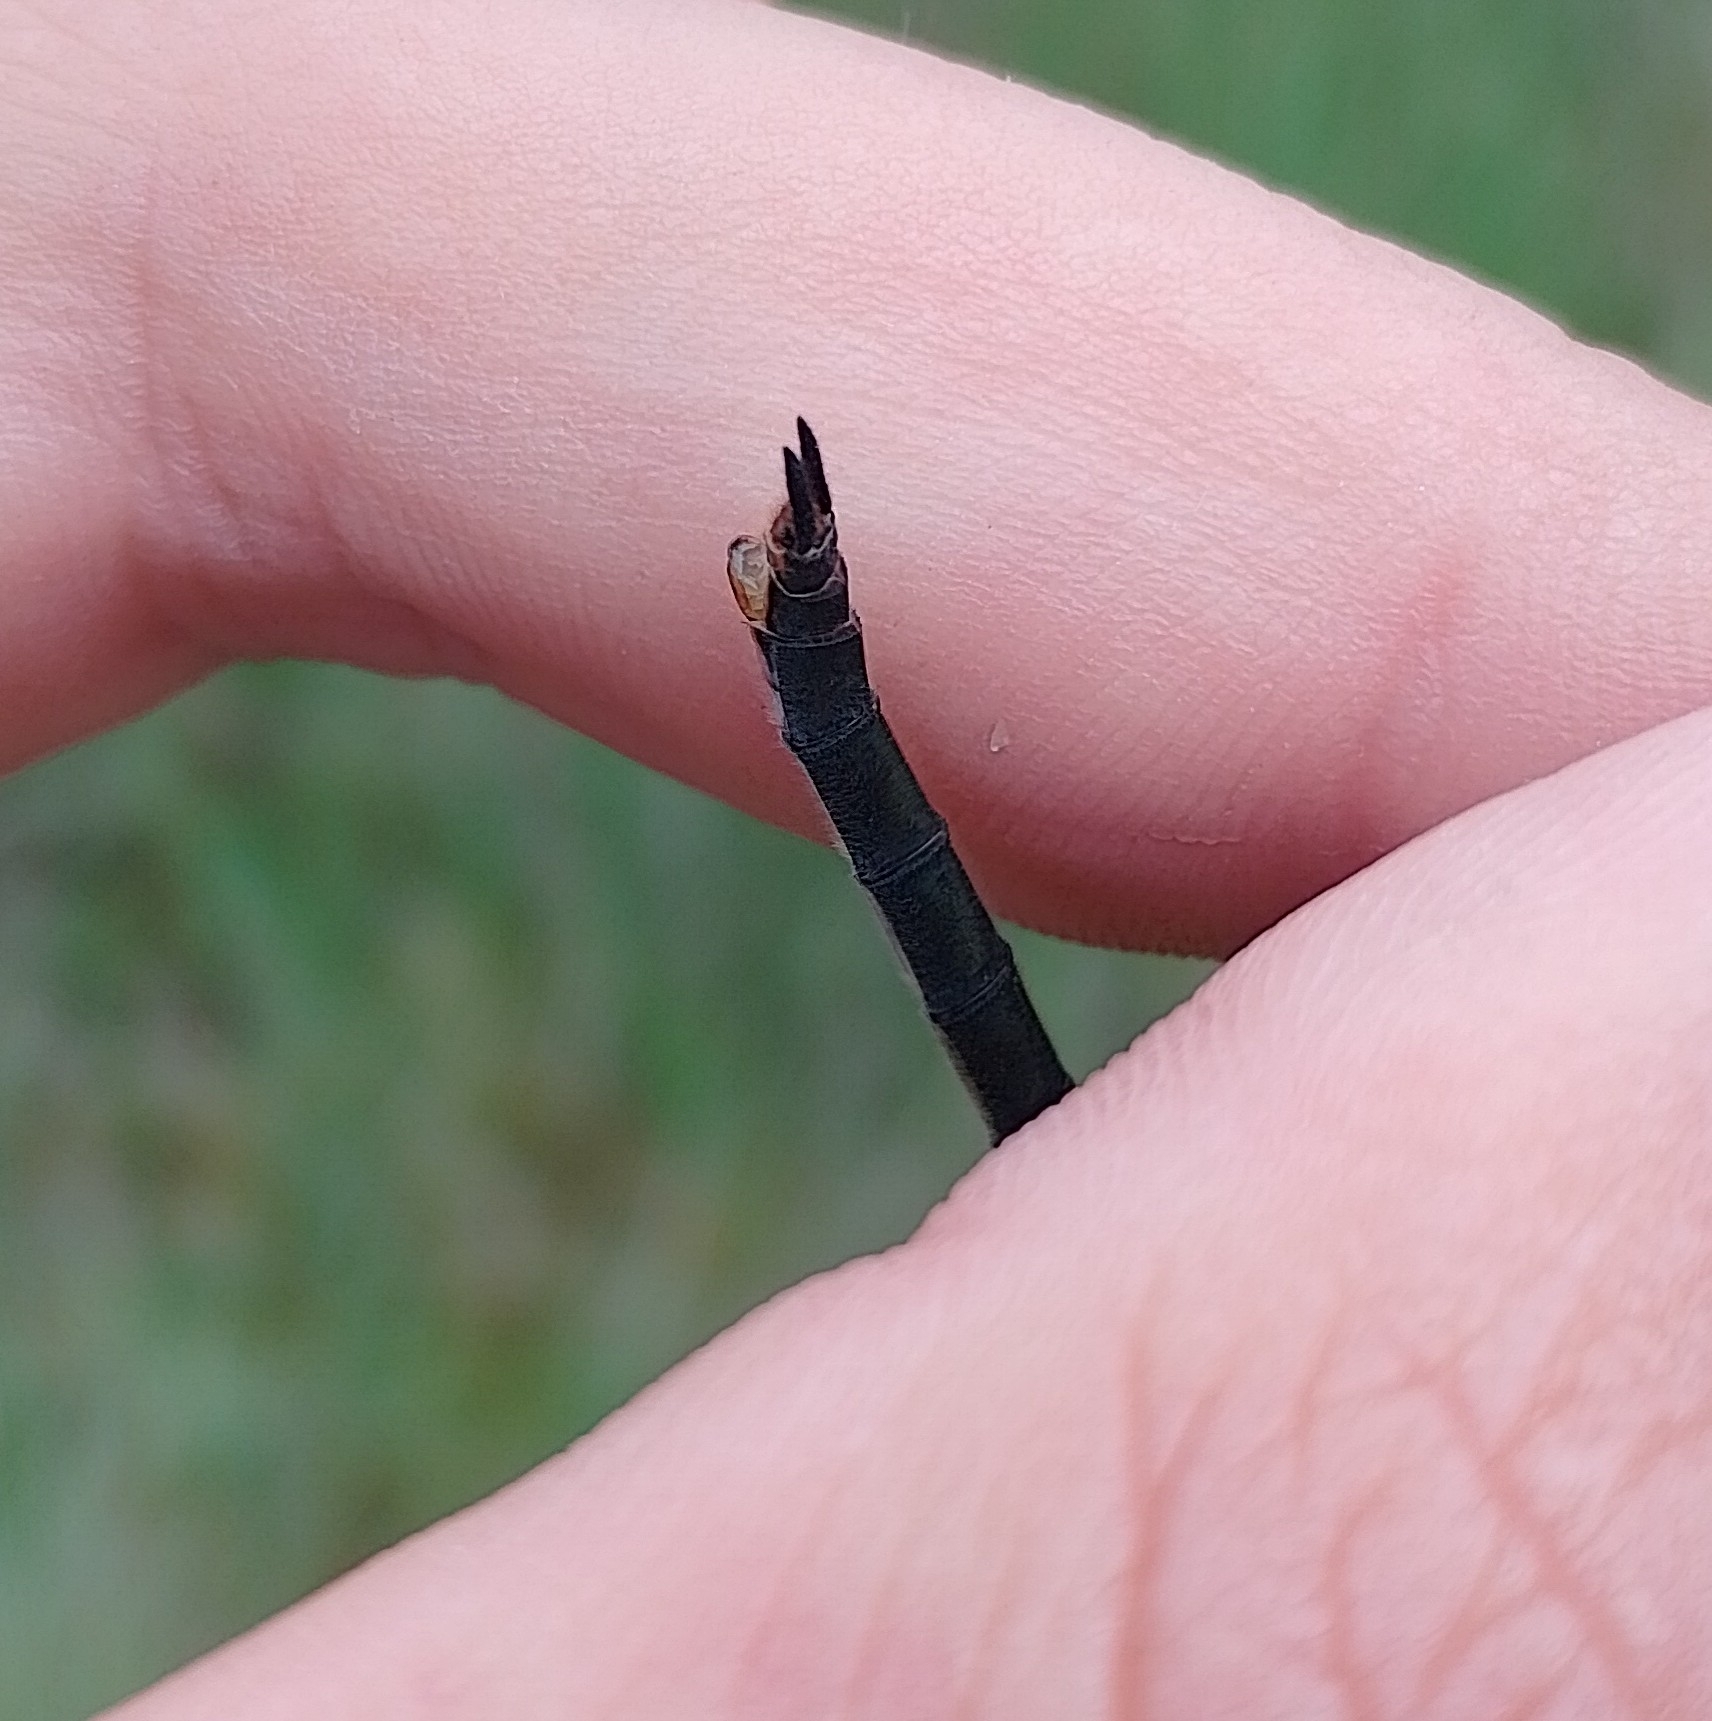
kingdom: Animalia
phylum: Arthropoda
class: Insecta
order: Odonata
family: Corduliidae
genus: Somatochlora
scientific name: Somatochlora arctica
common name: Northern emerald
